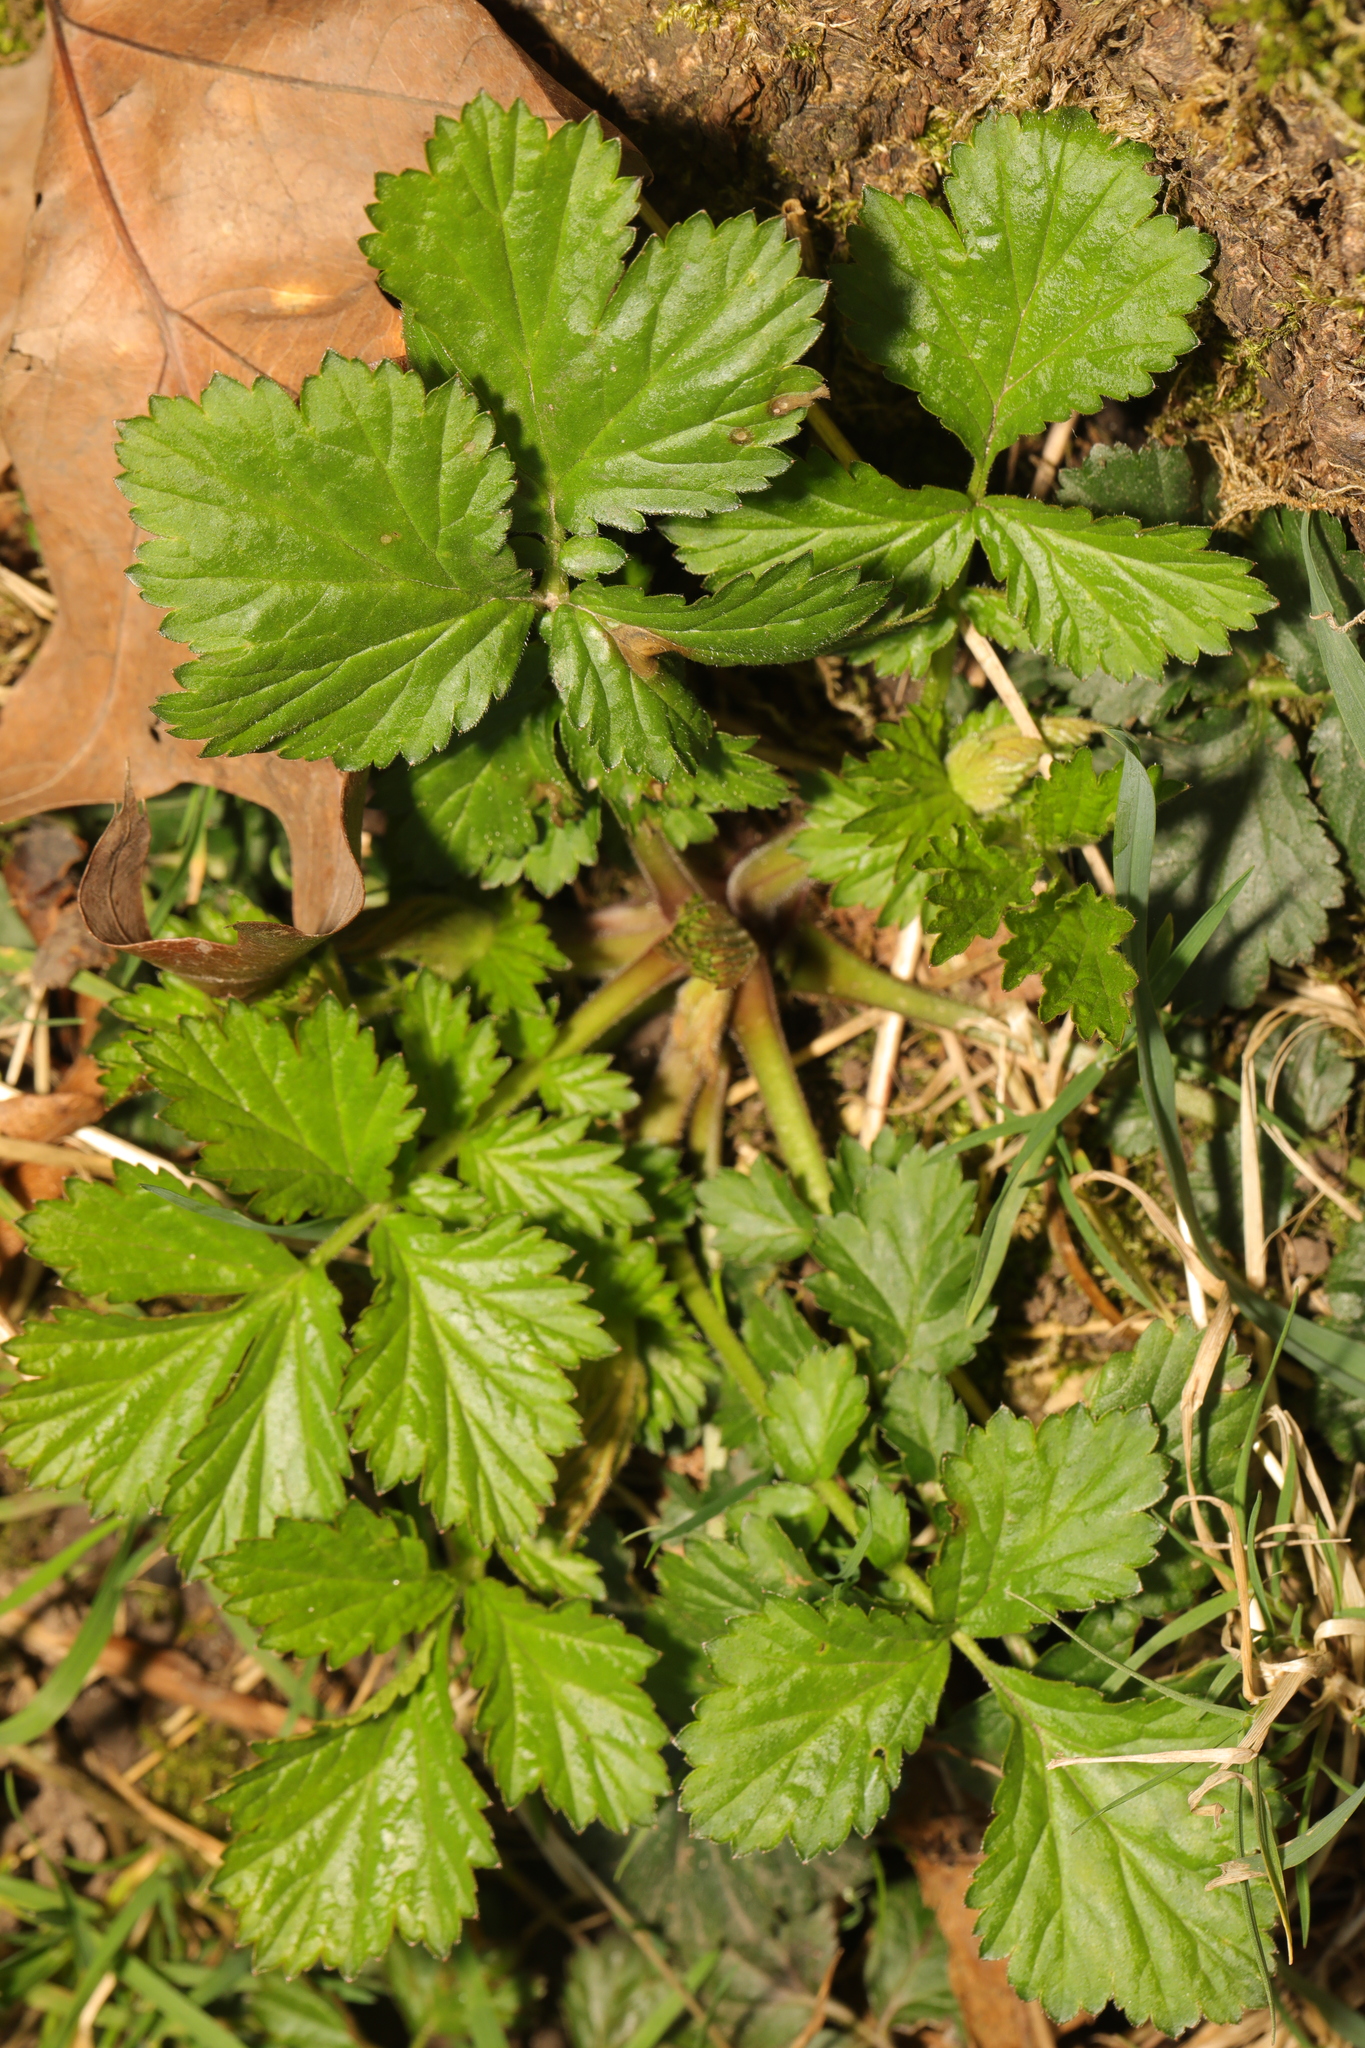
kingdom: Plantae
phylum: Tracheophyta
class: Magnoliopsida
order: Rosales
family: Rosaceae
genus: Geum
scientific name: Geum urbanum
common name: Wood avens
